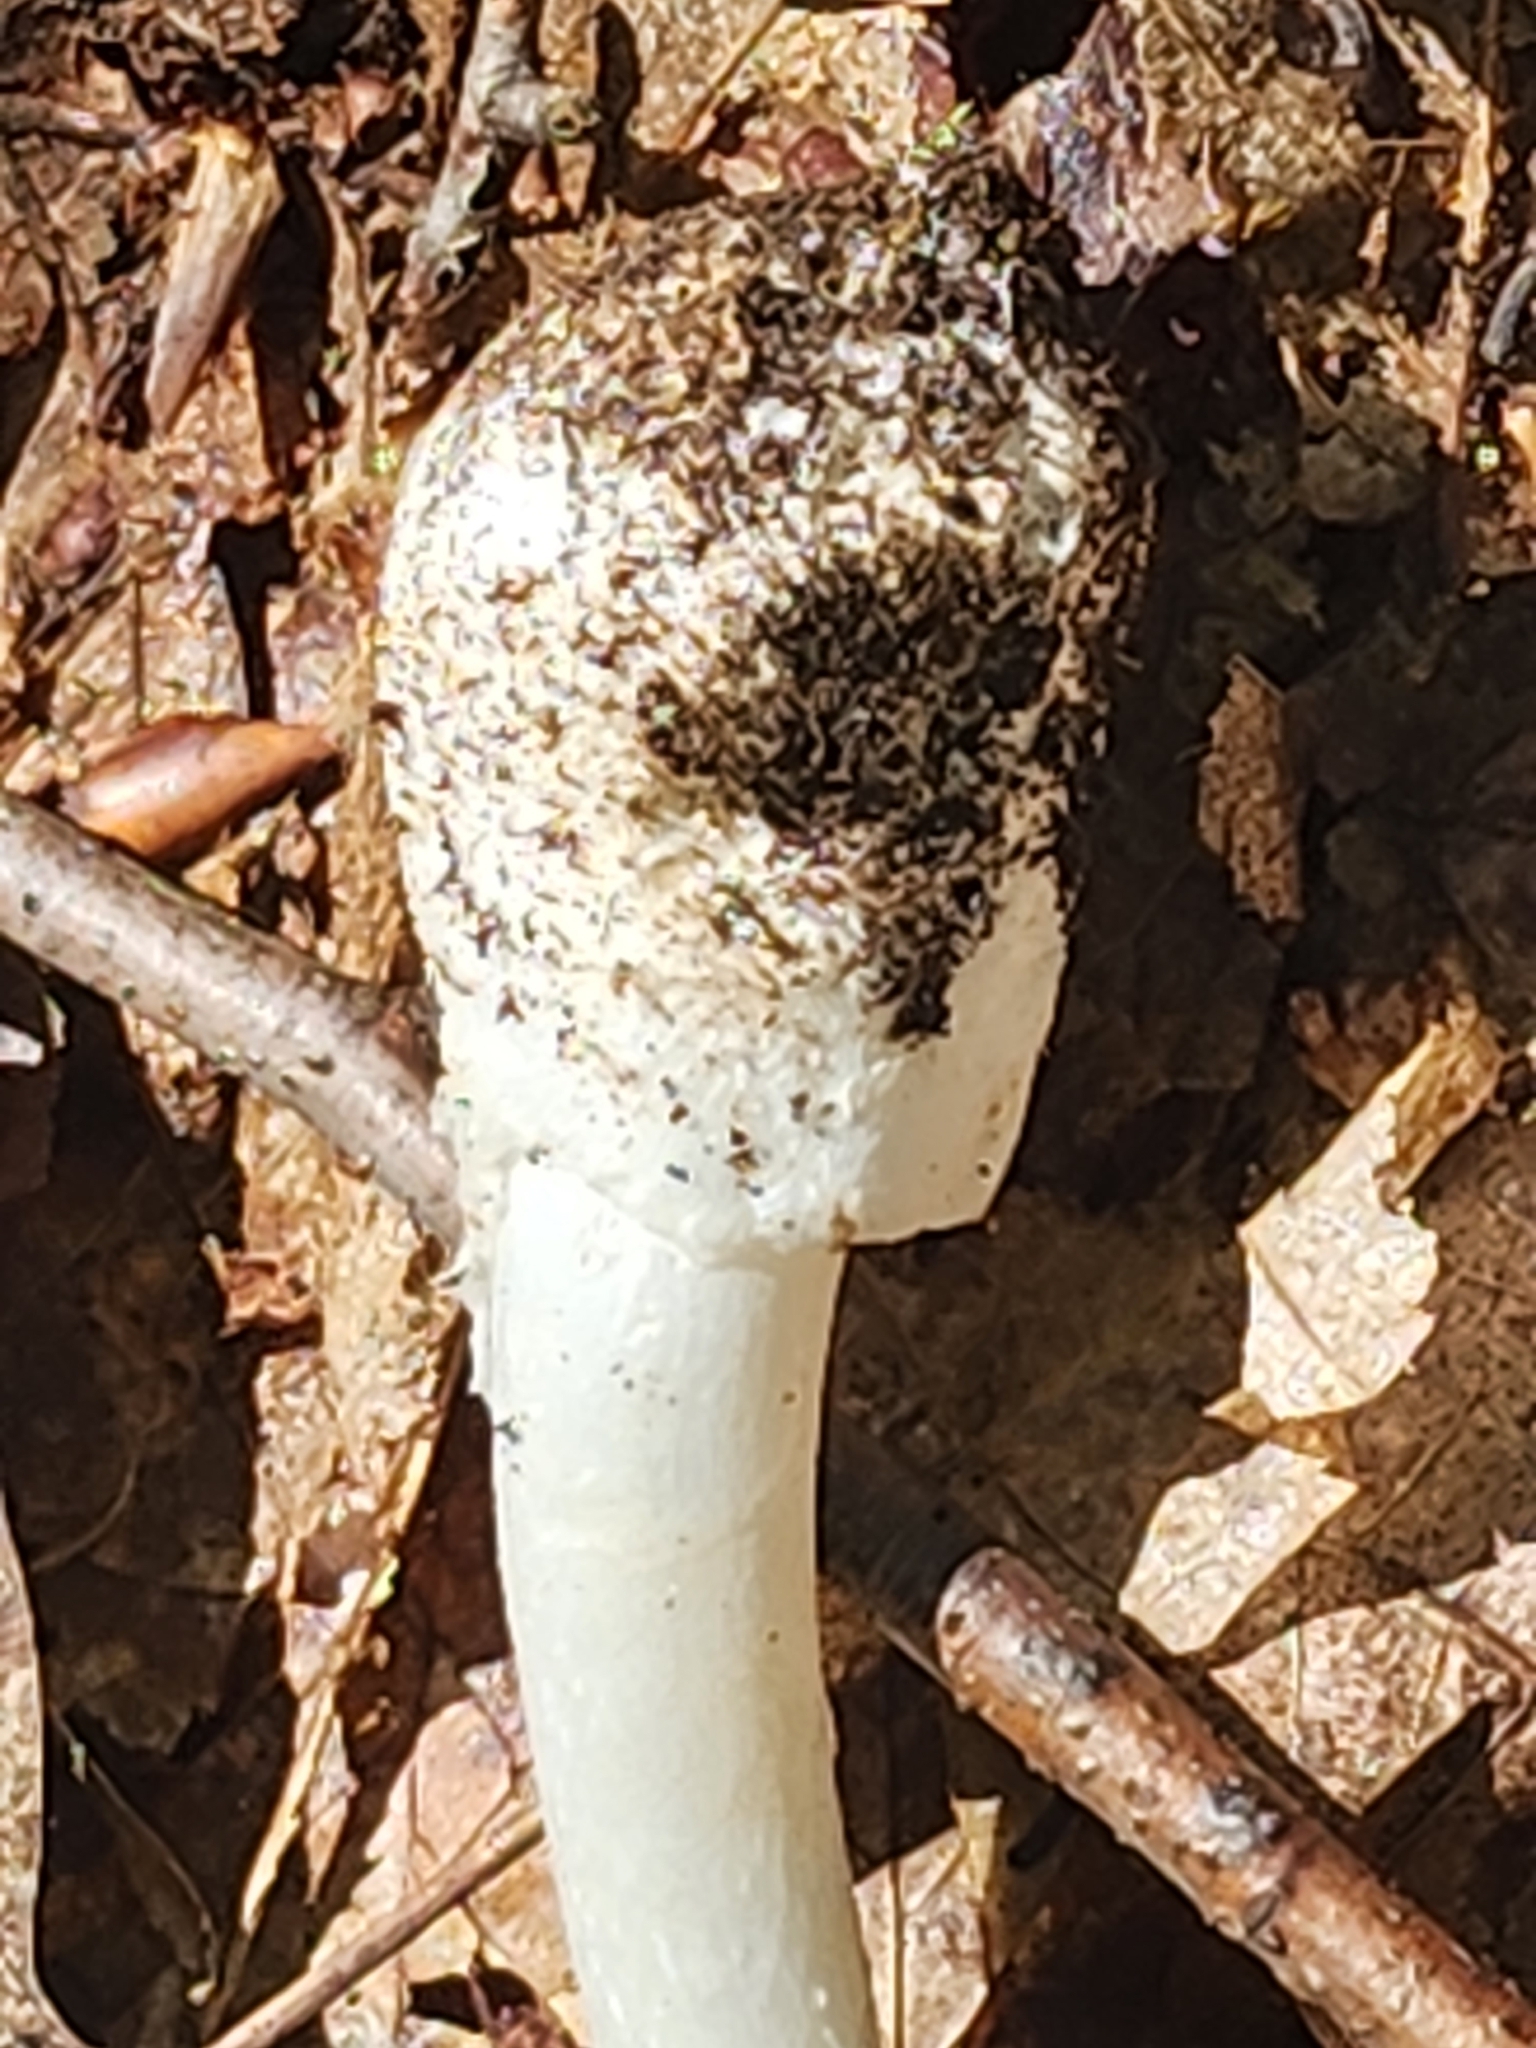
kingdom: Fungi
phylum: Basidiomycota
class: Agaricomycetes
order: Agaricales
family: Amanitaceae
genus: Amanita
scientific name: Amanita bisporigera
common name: Eastern north american destroying angel
